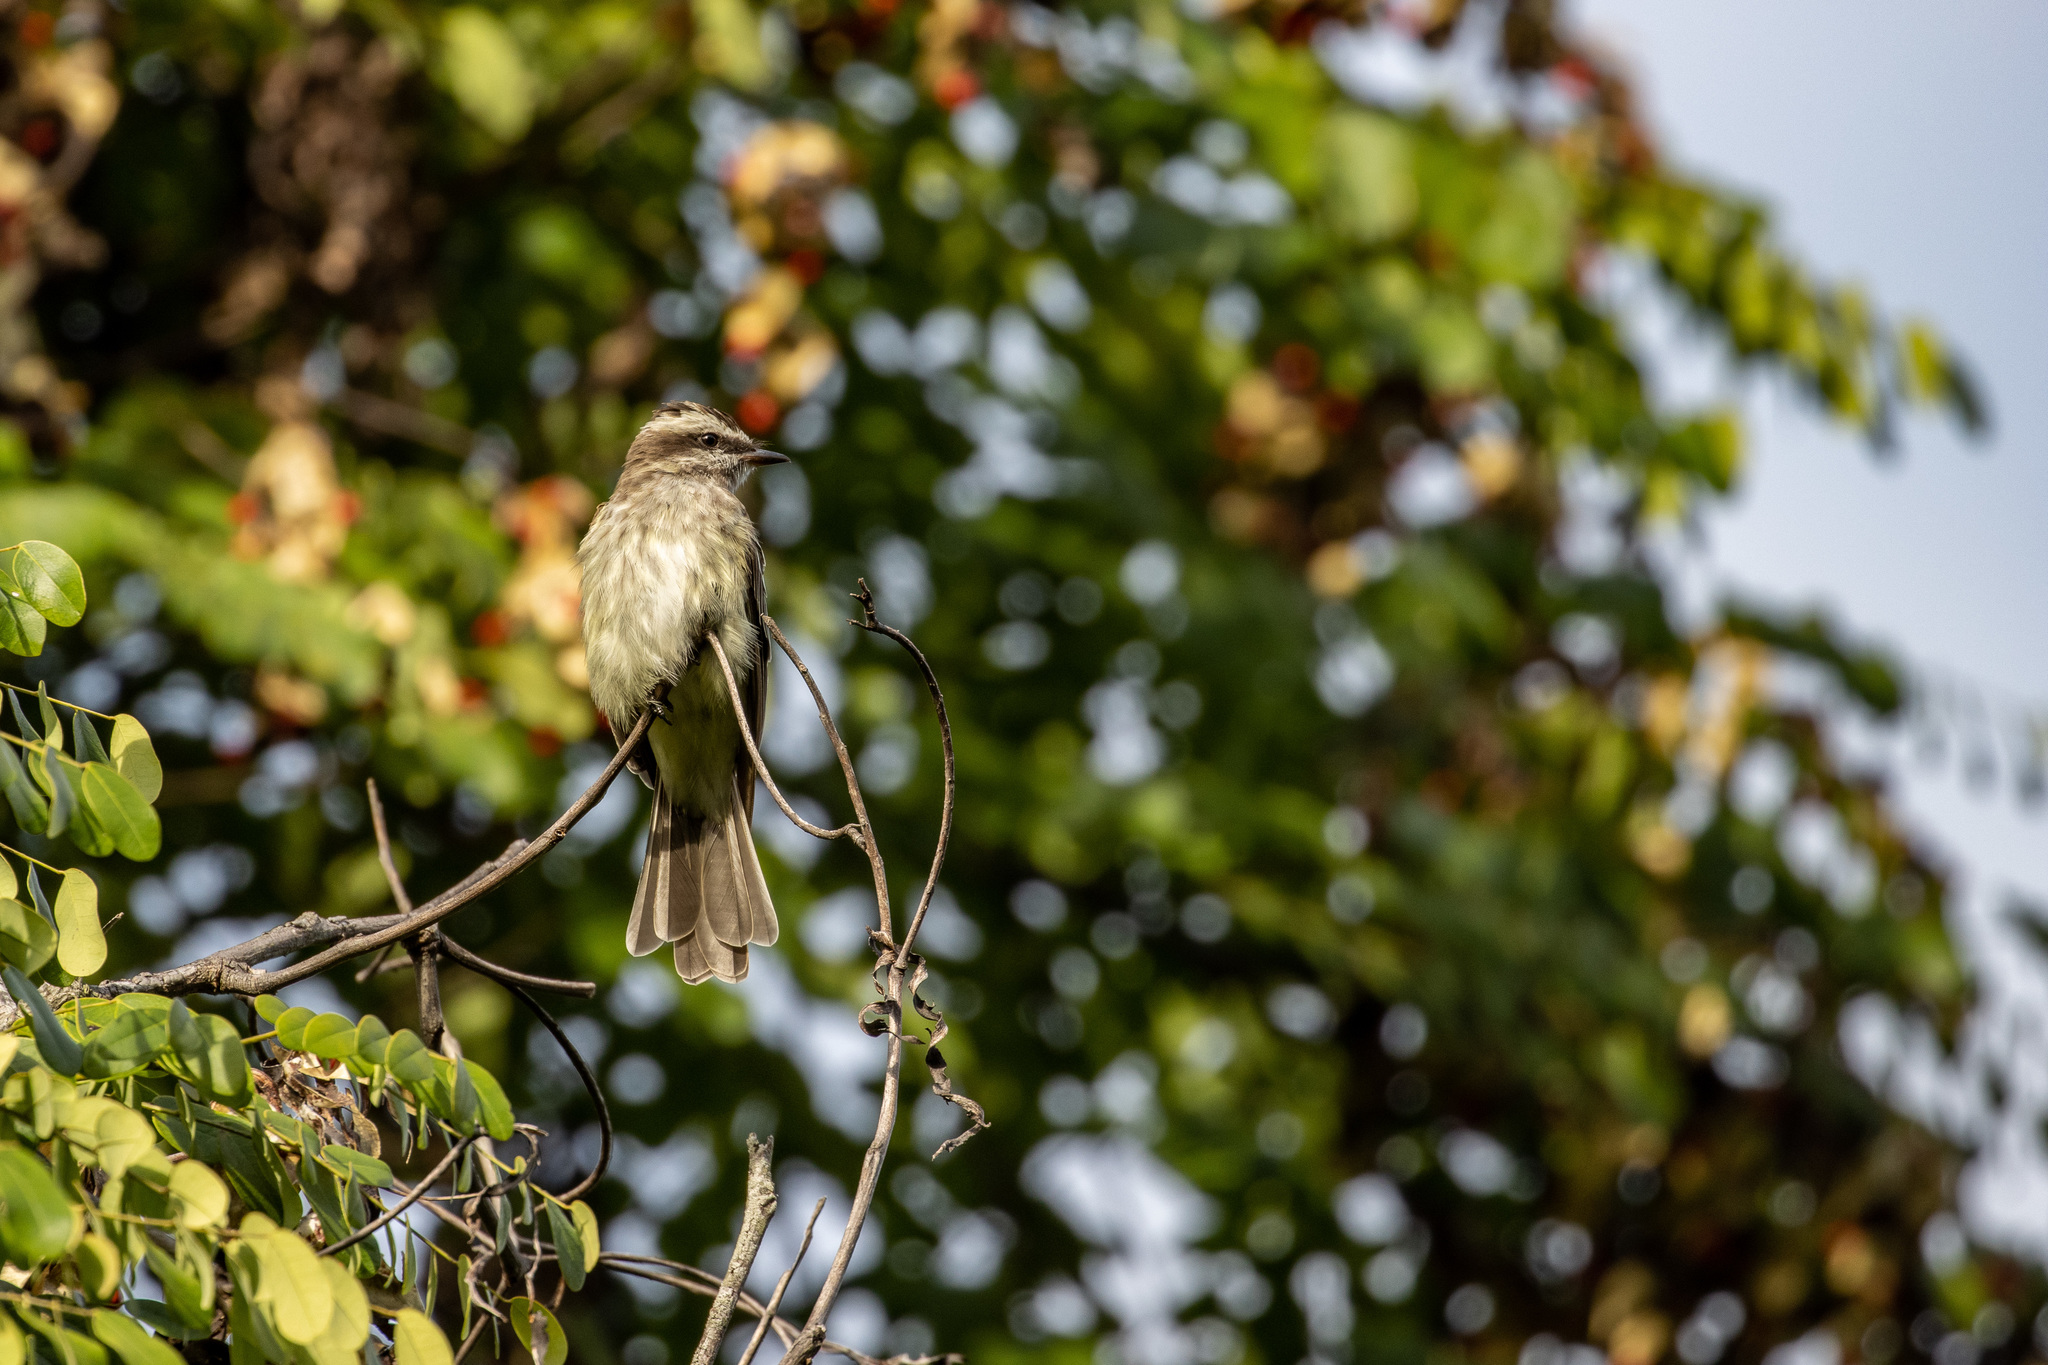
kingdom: Animalia
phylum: Chordata
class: Aves
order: Passeriformes
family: Tyrannidae
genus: Empidonomus
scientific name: Empidonomus varius
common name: Variegated flycatcher
